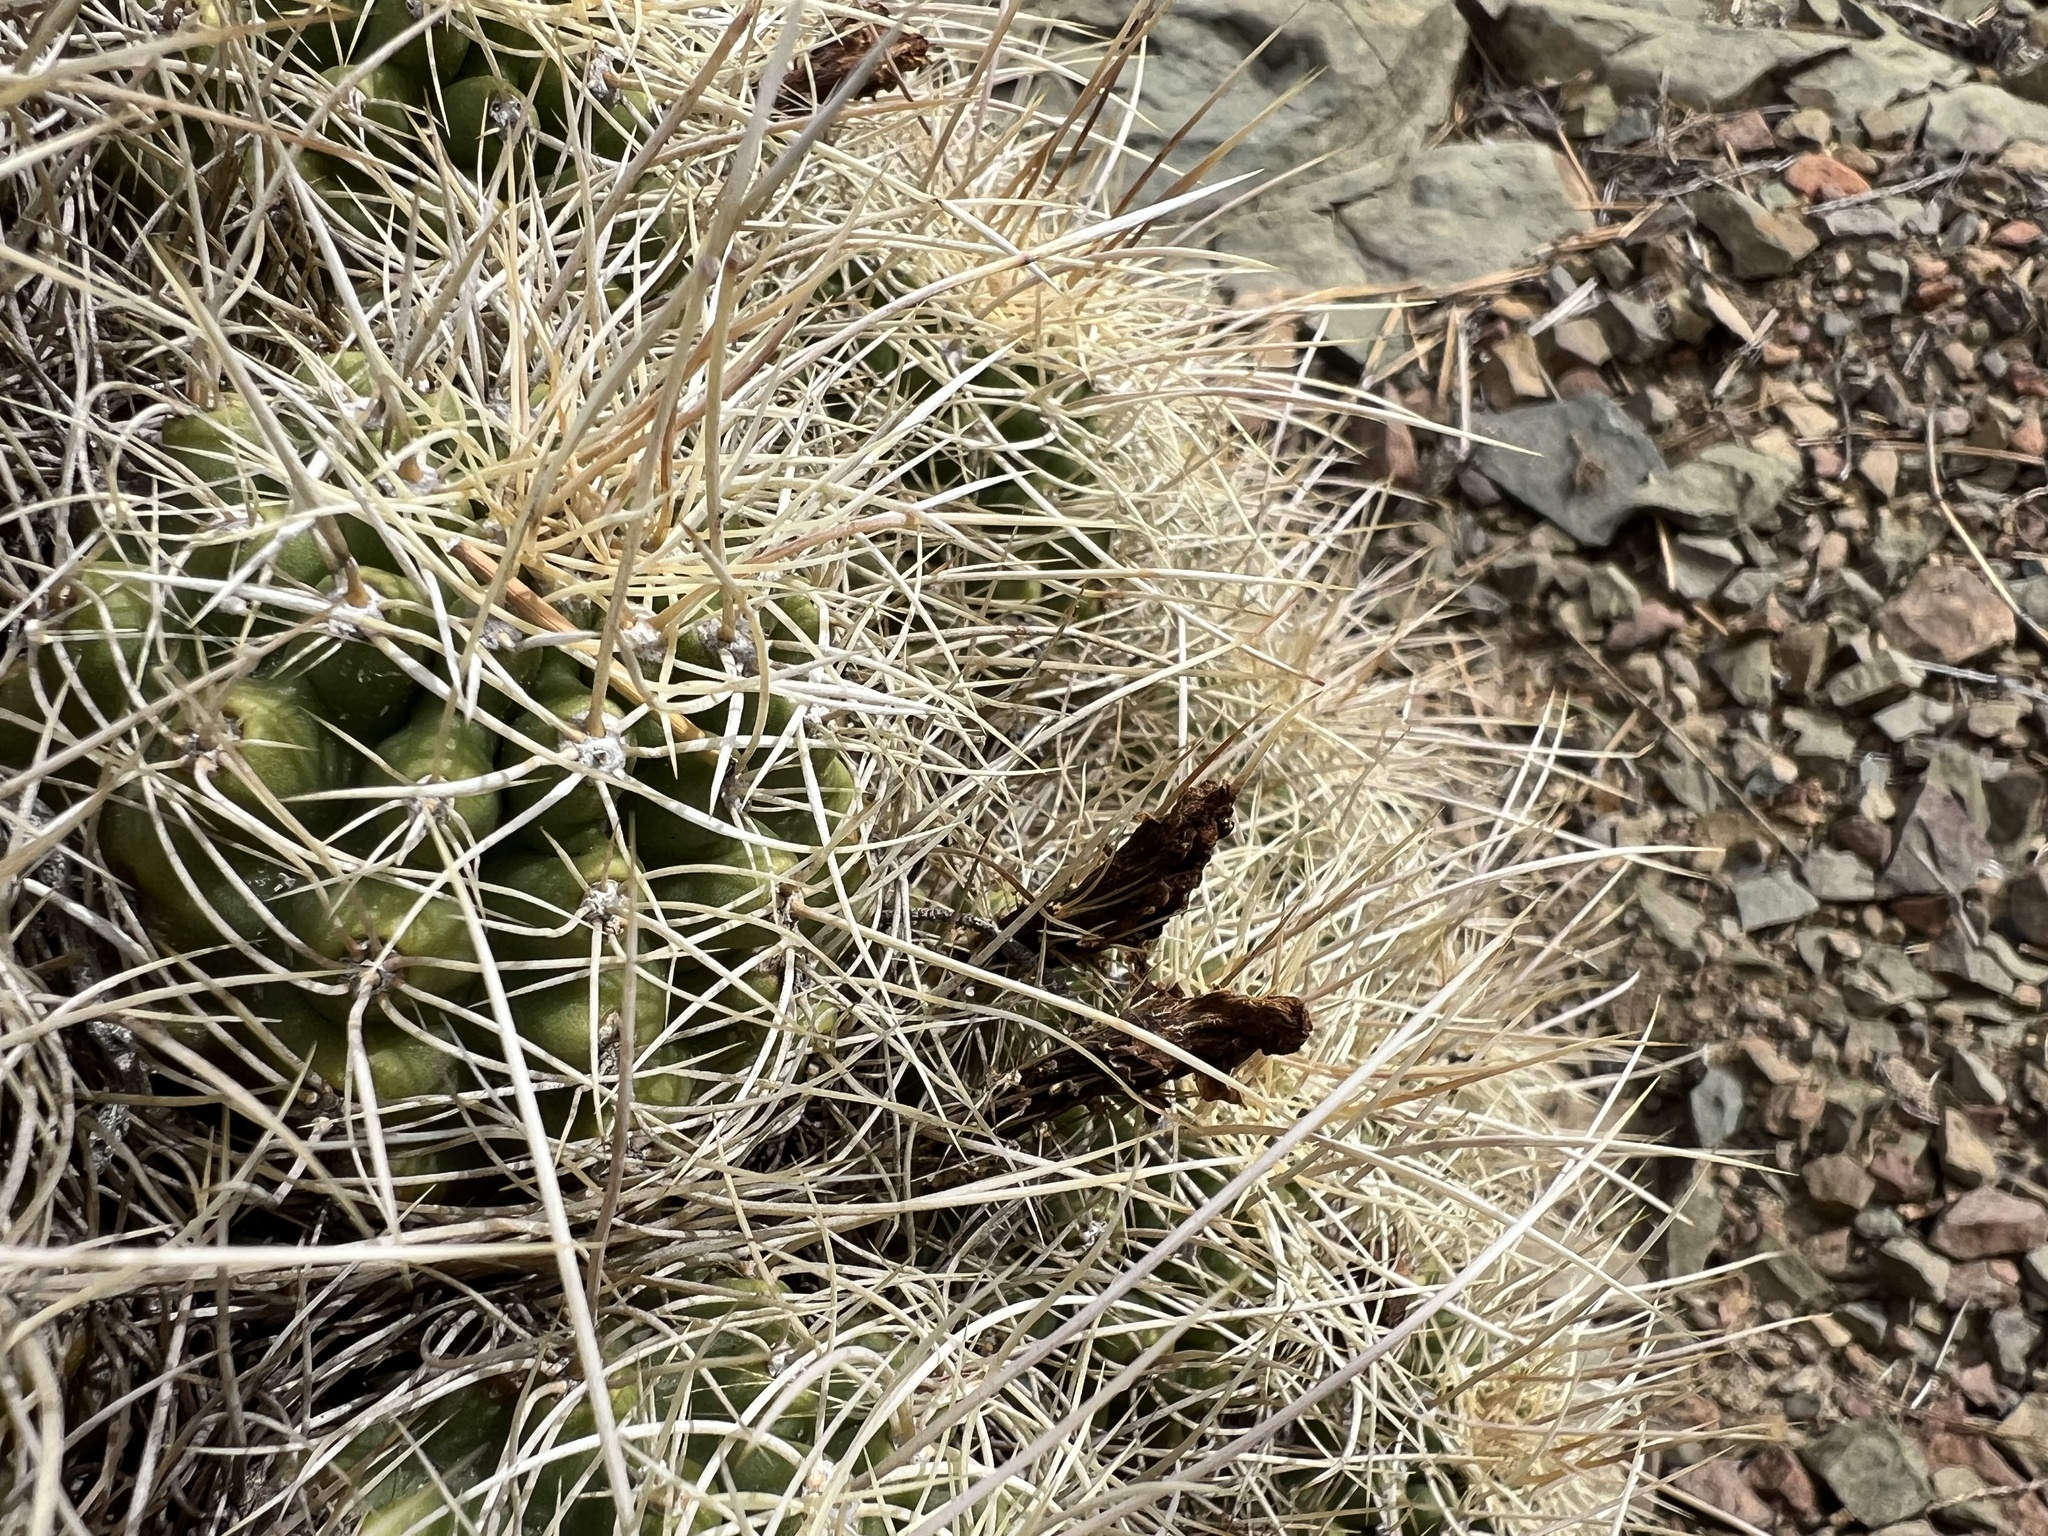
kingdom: Plantae
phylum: Tracheophyta
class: Magnoliopsida
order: Caryophyllales
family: Cactaceae
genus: Echinocereus
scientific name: Echinocereus triglochidiatus
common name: Claretcup hedgehog
